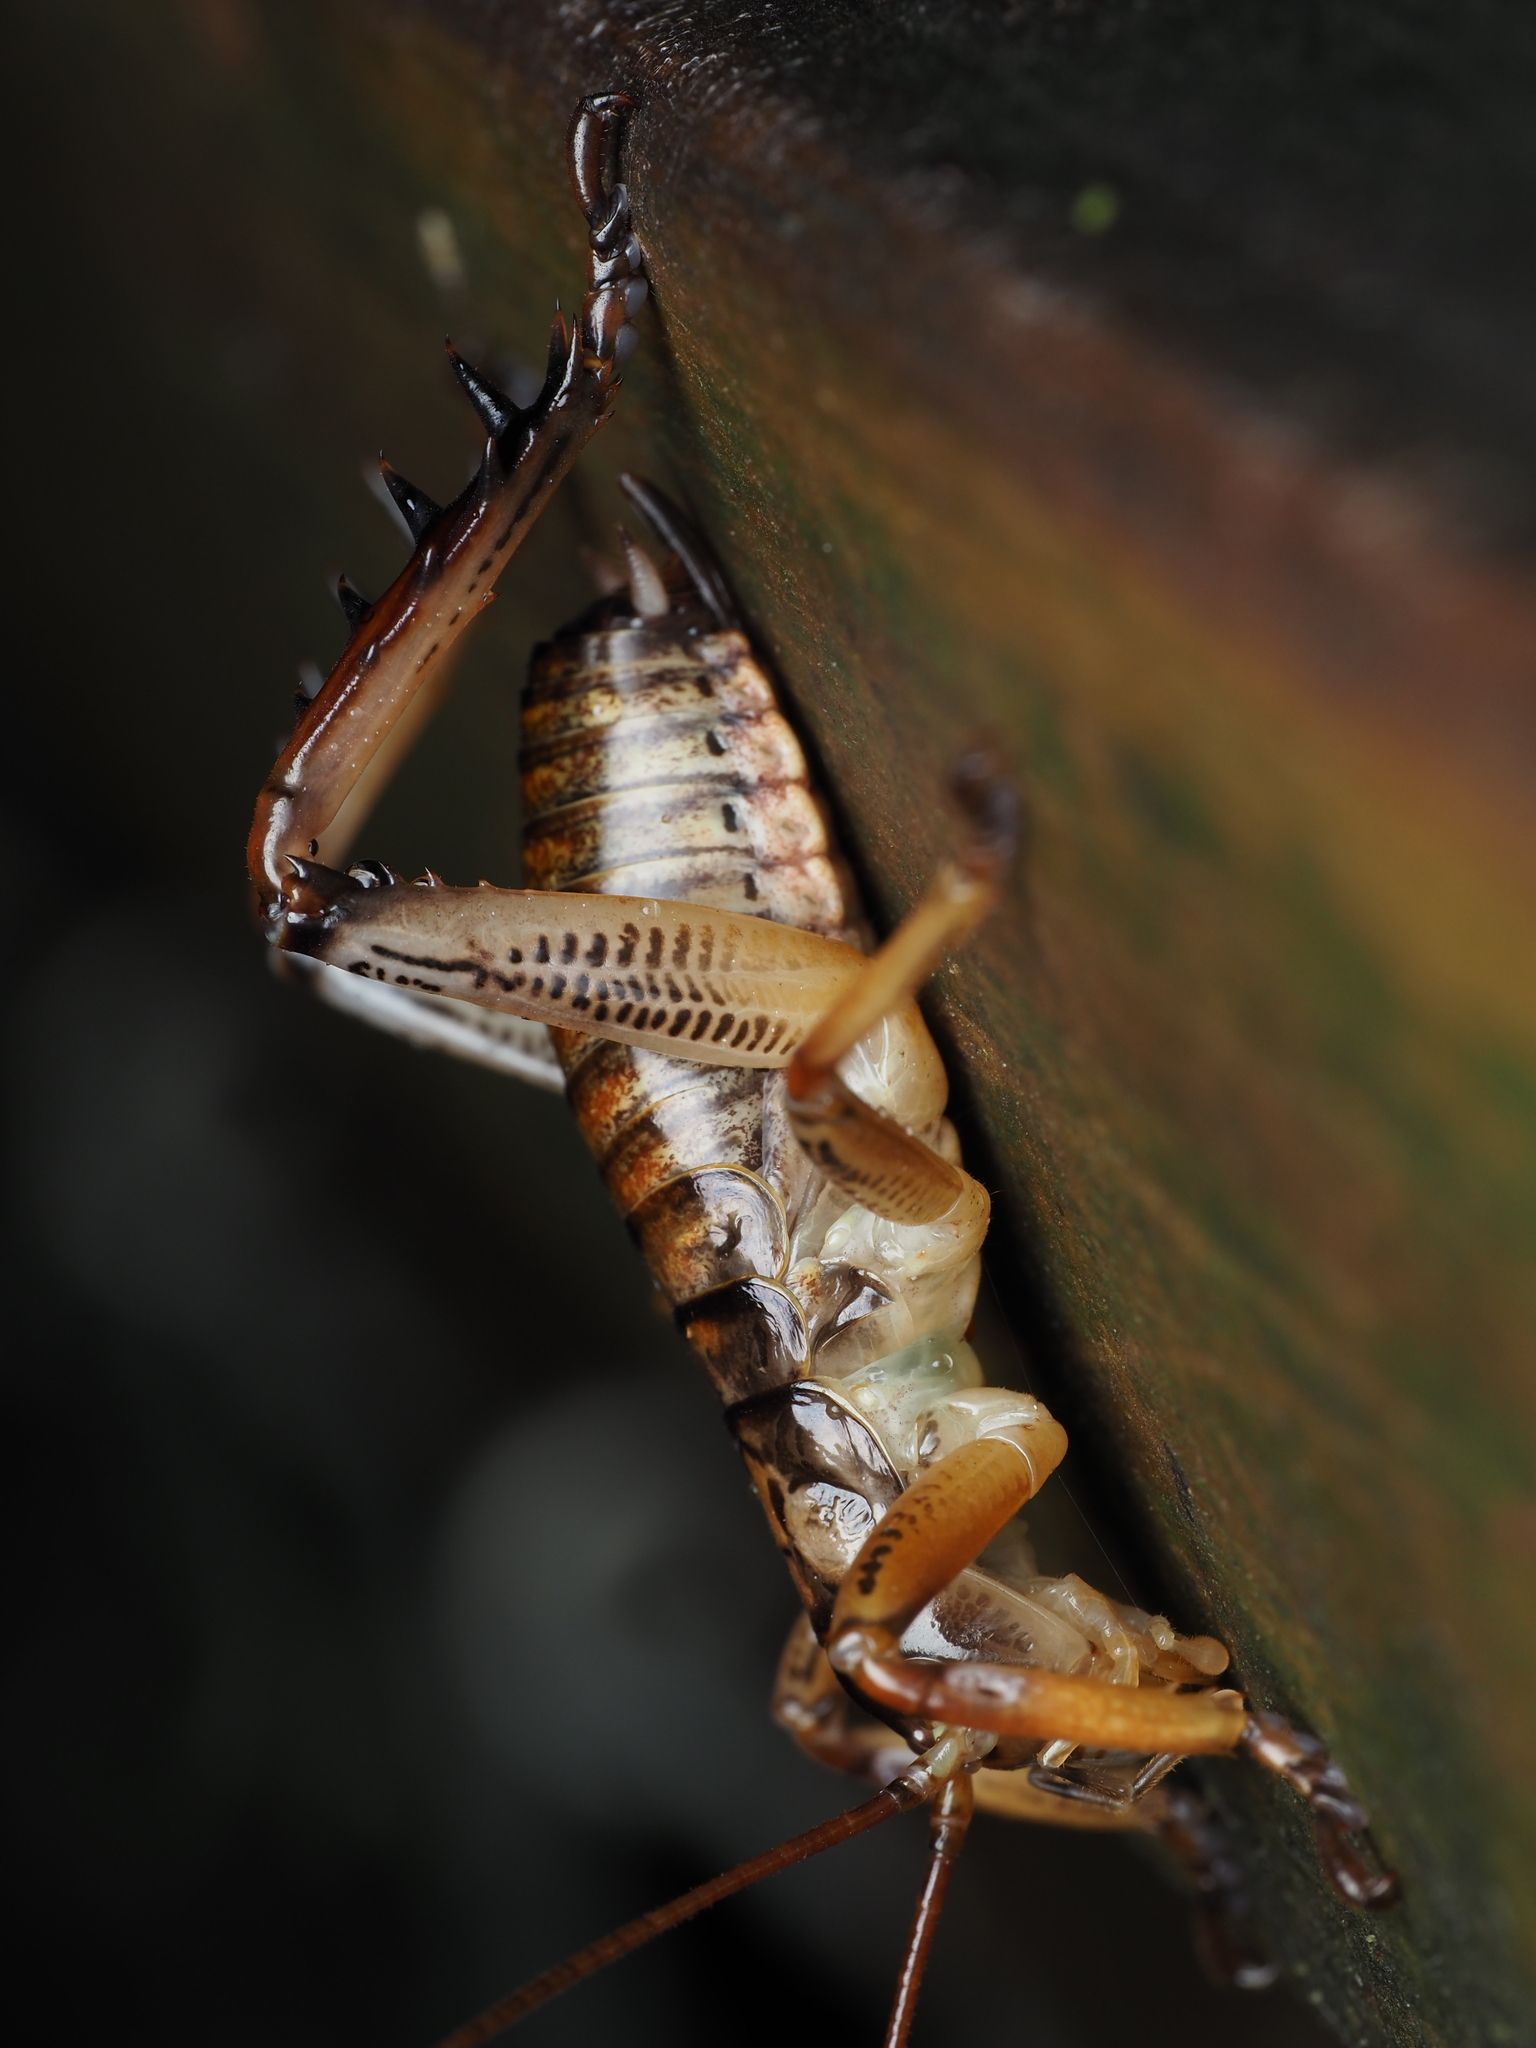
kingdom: Animalia
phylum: Arthropoda
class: Insecta
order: Orthoptera
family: Anostostomatidae
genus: Hemideina
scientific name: Hemideina thoracica
